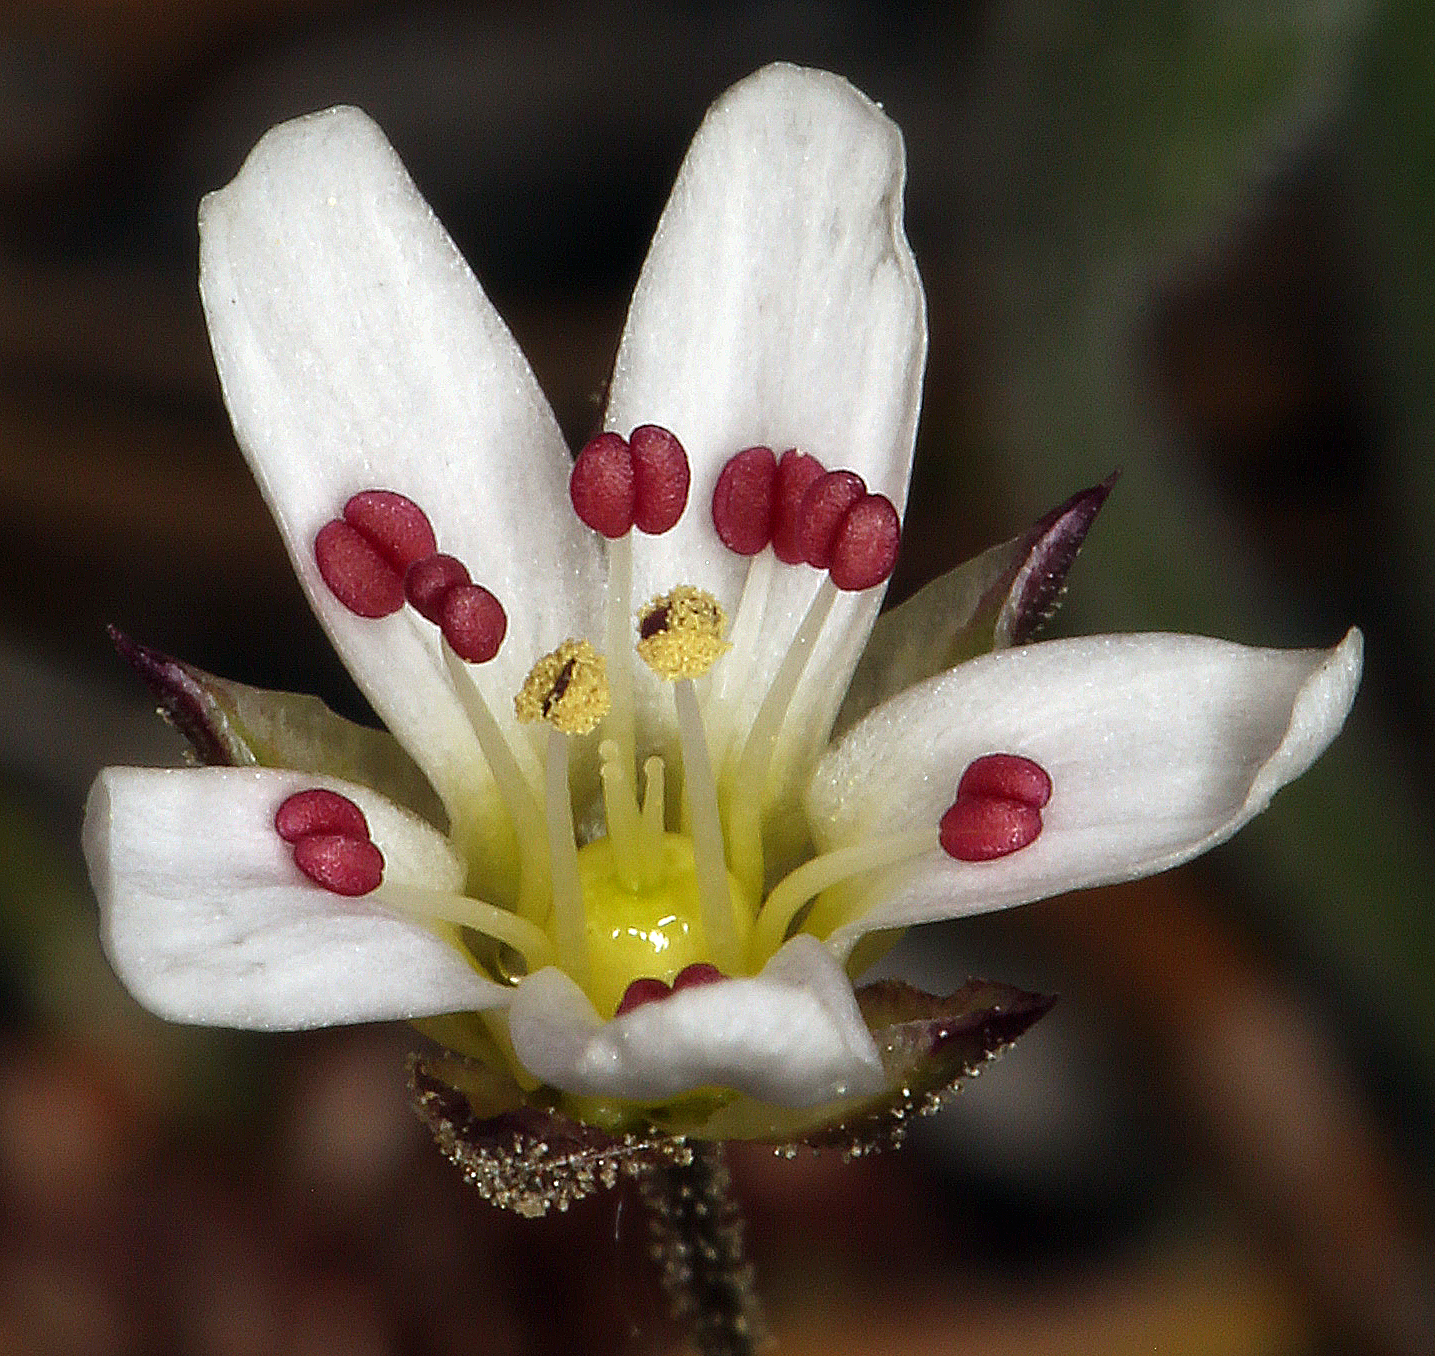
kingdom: Plantae
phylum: Tracheophyta
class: Magnoliopsida
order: Caryophyllales
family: Caryophyllaceae
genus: Eremogone
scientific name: Eremogone kingii
